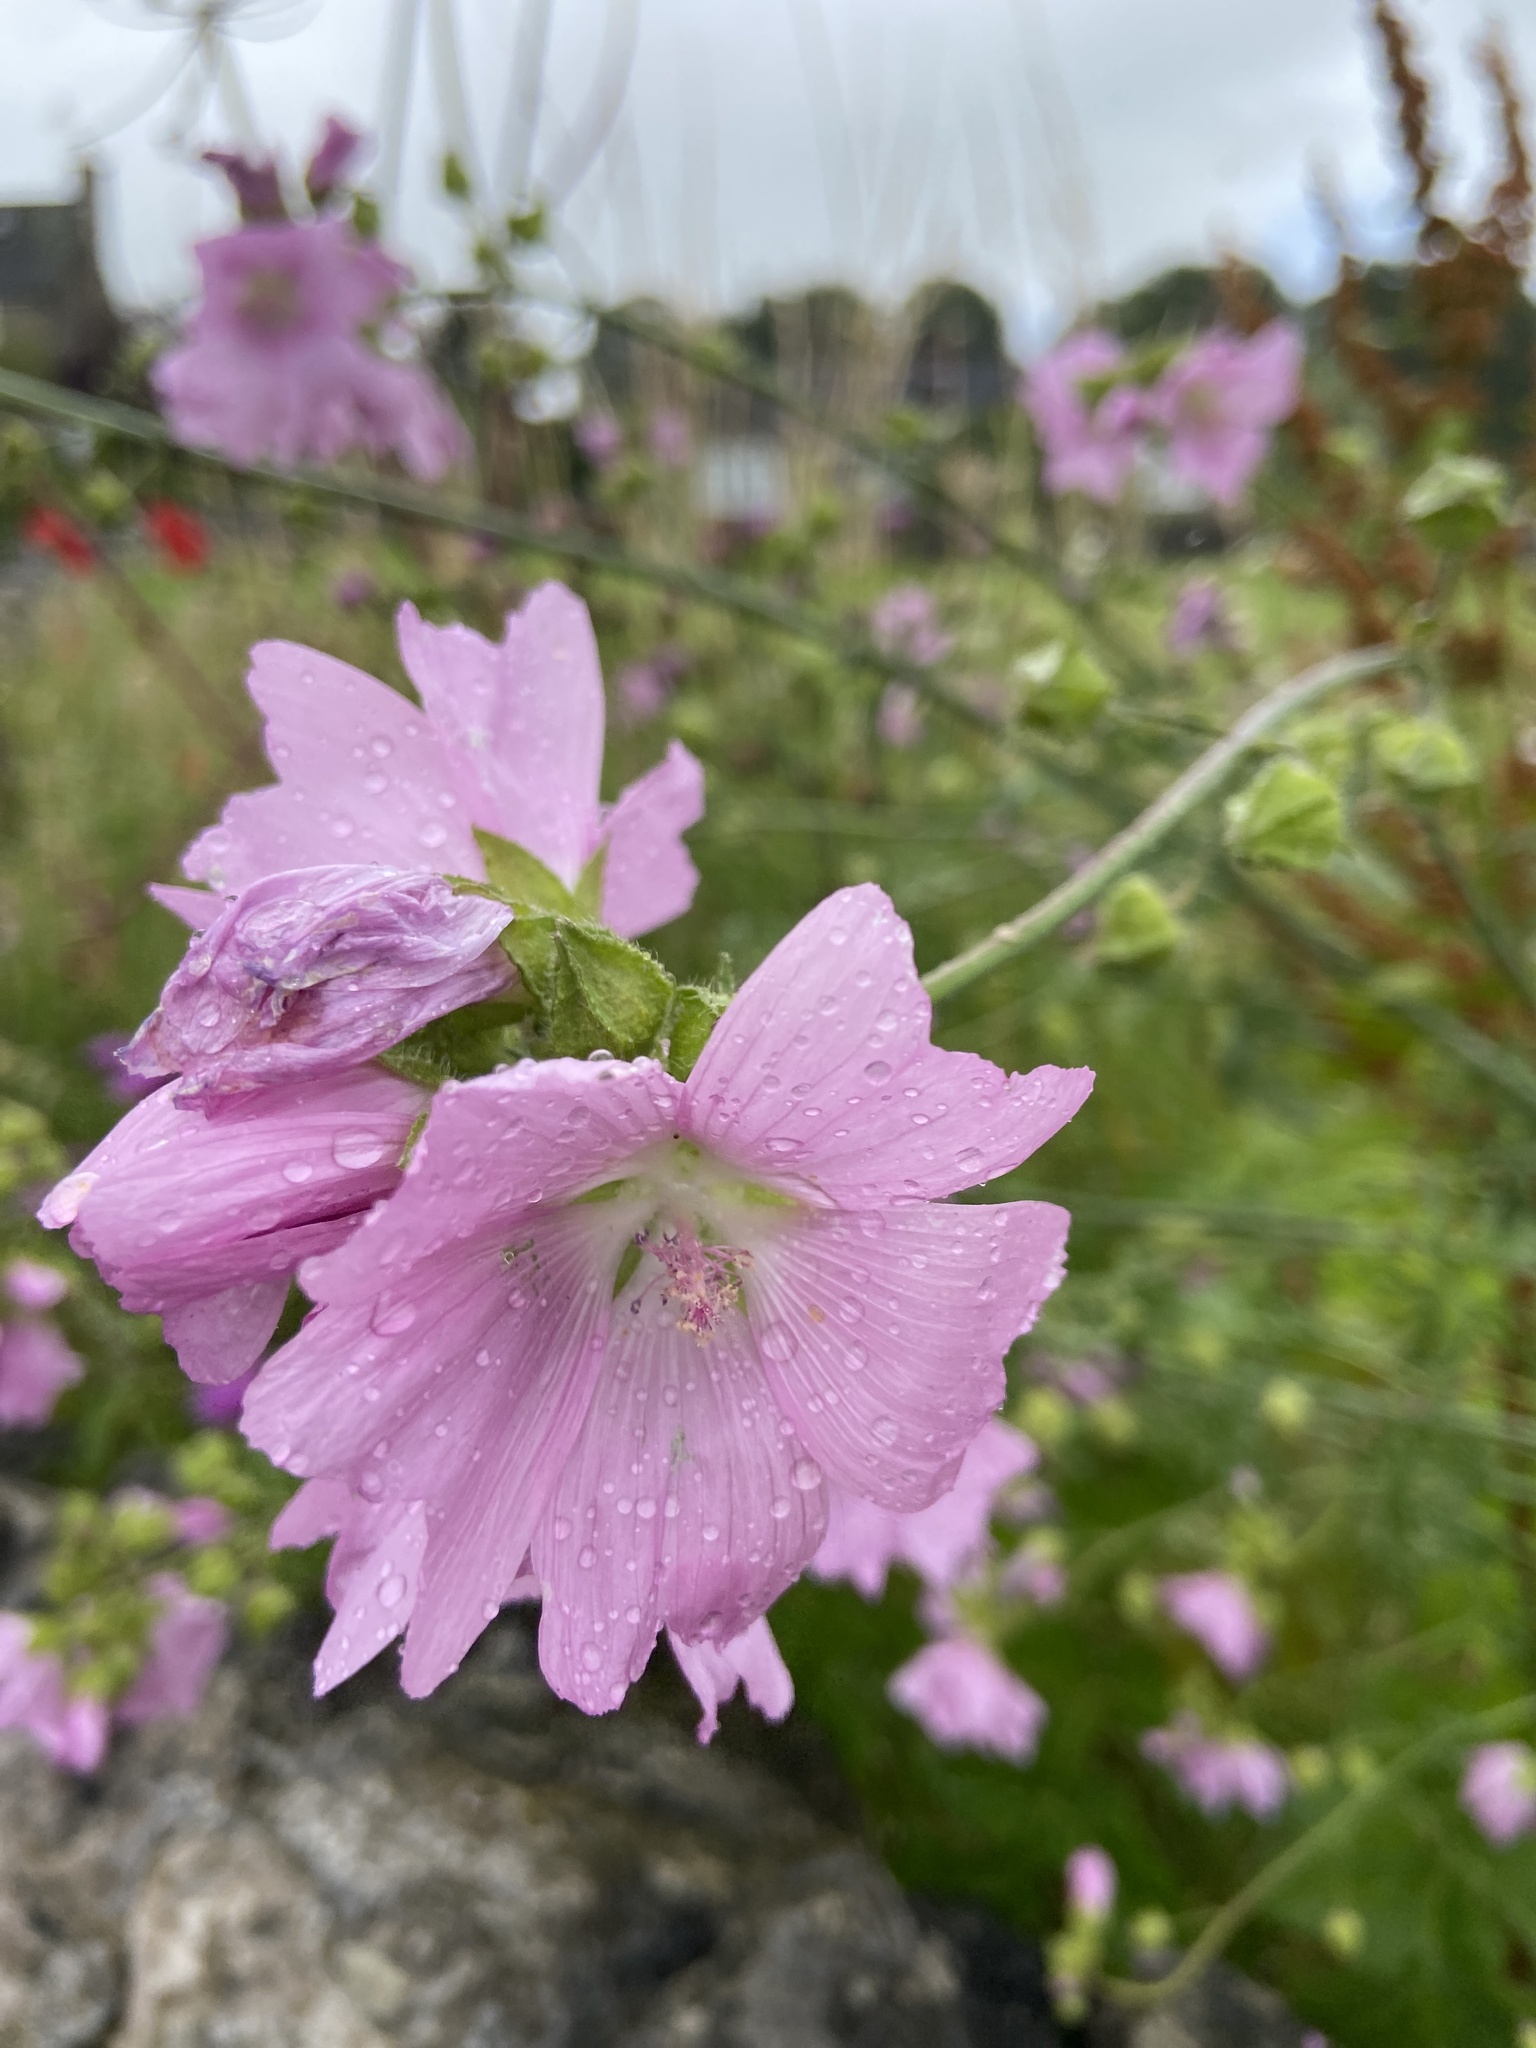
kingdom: Plantae
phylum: Tracheophyta
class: Magnoliopsida
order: Malvales
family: Malvaceae
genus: Malva
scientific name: Malva moschata
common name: Musk mallow
